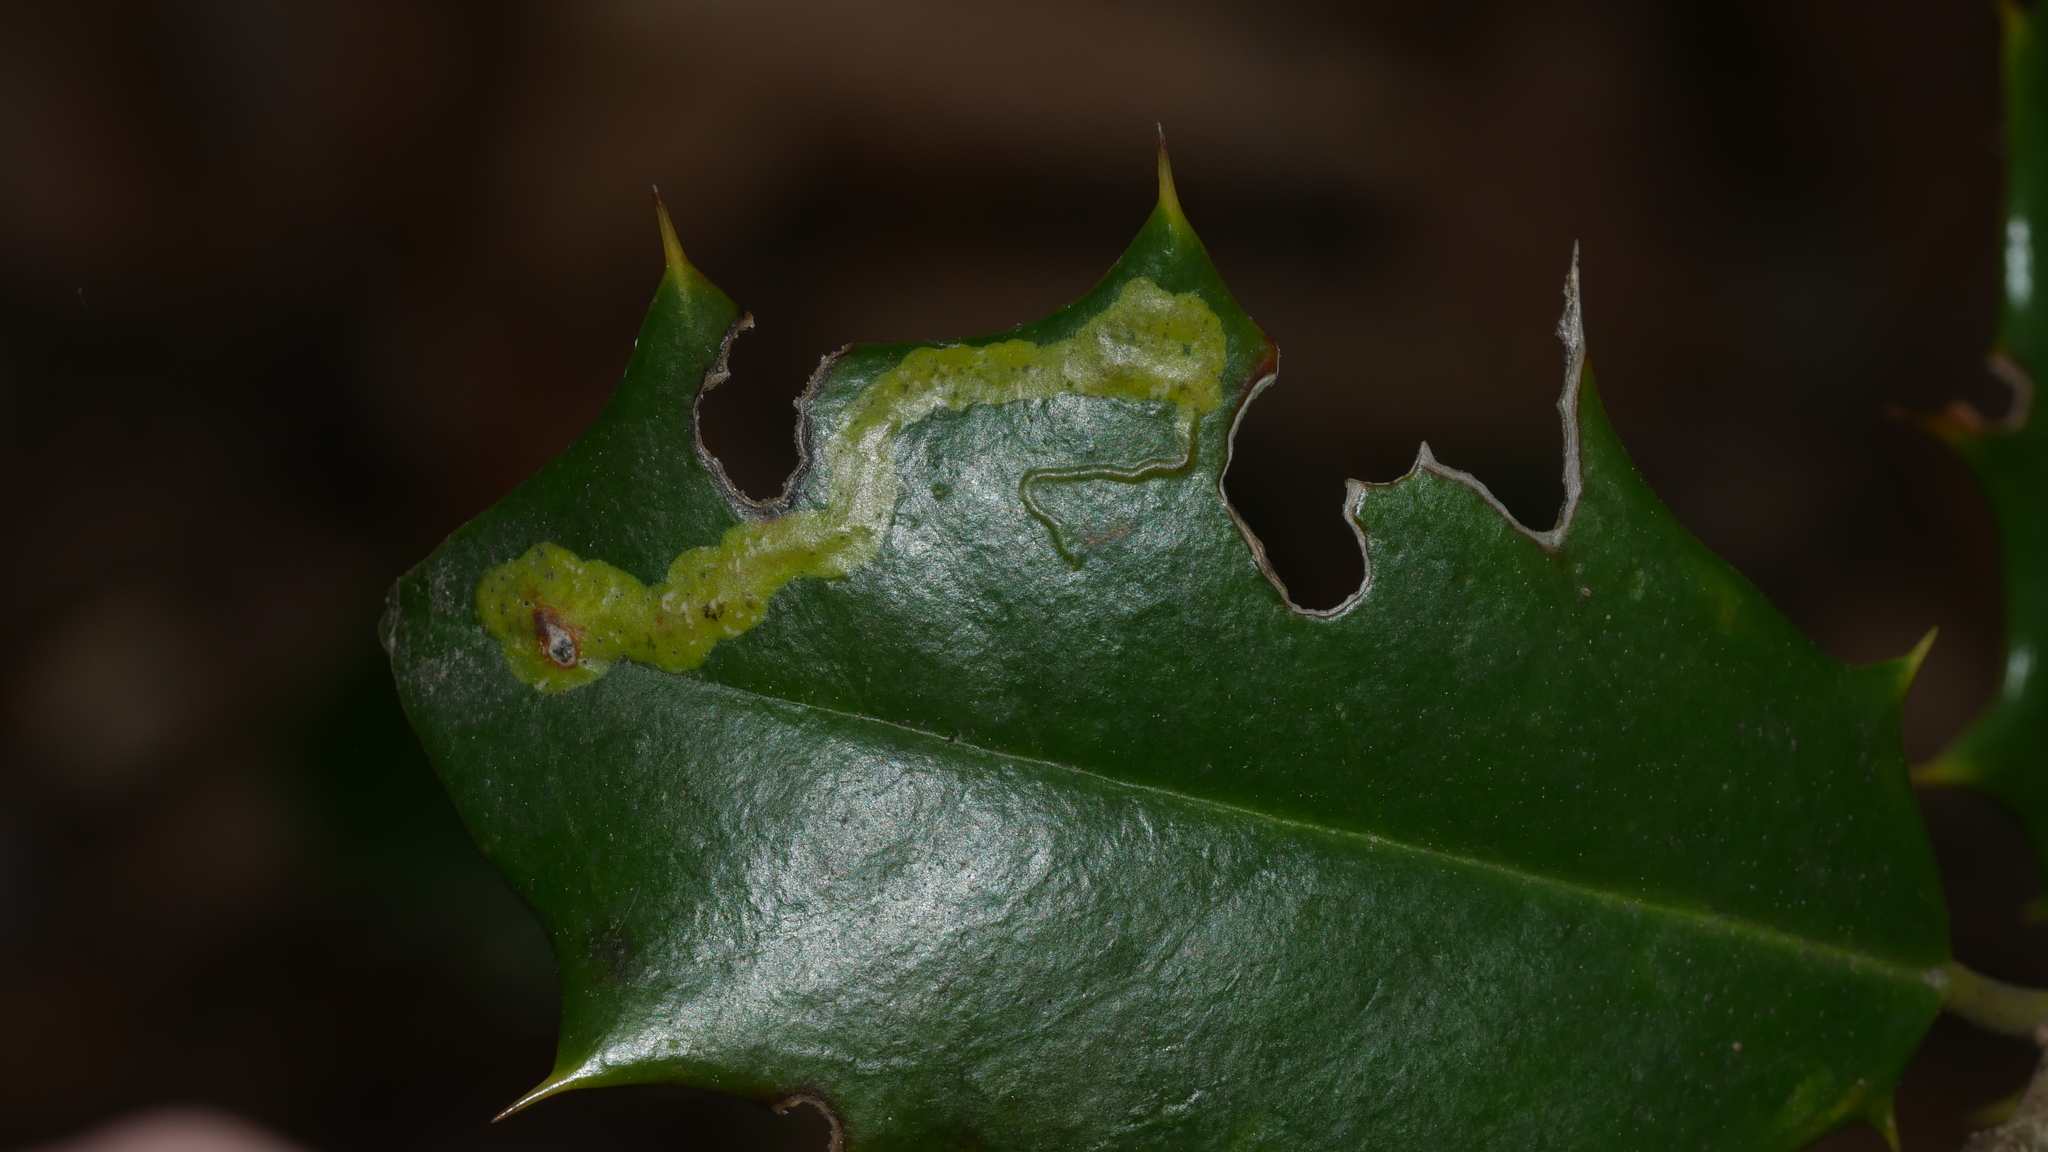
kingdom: Animalia
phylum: Arthropoda
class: Insecta
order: Diptera
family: Agromyzidae
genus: Phytomyza
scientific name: Phytomyza ilicicola
